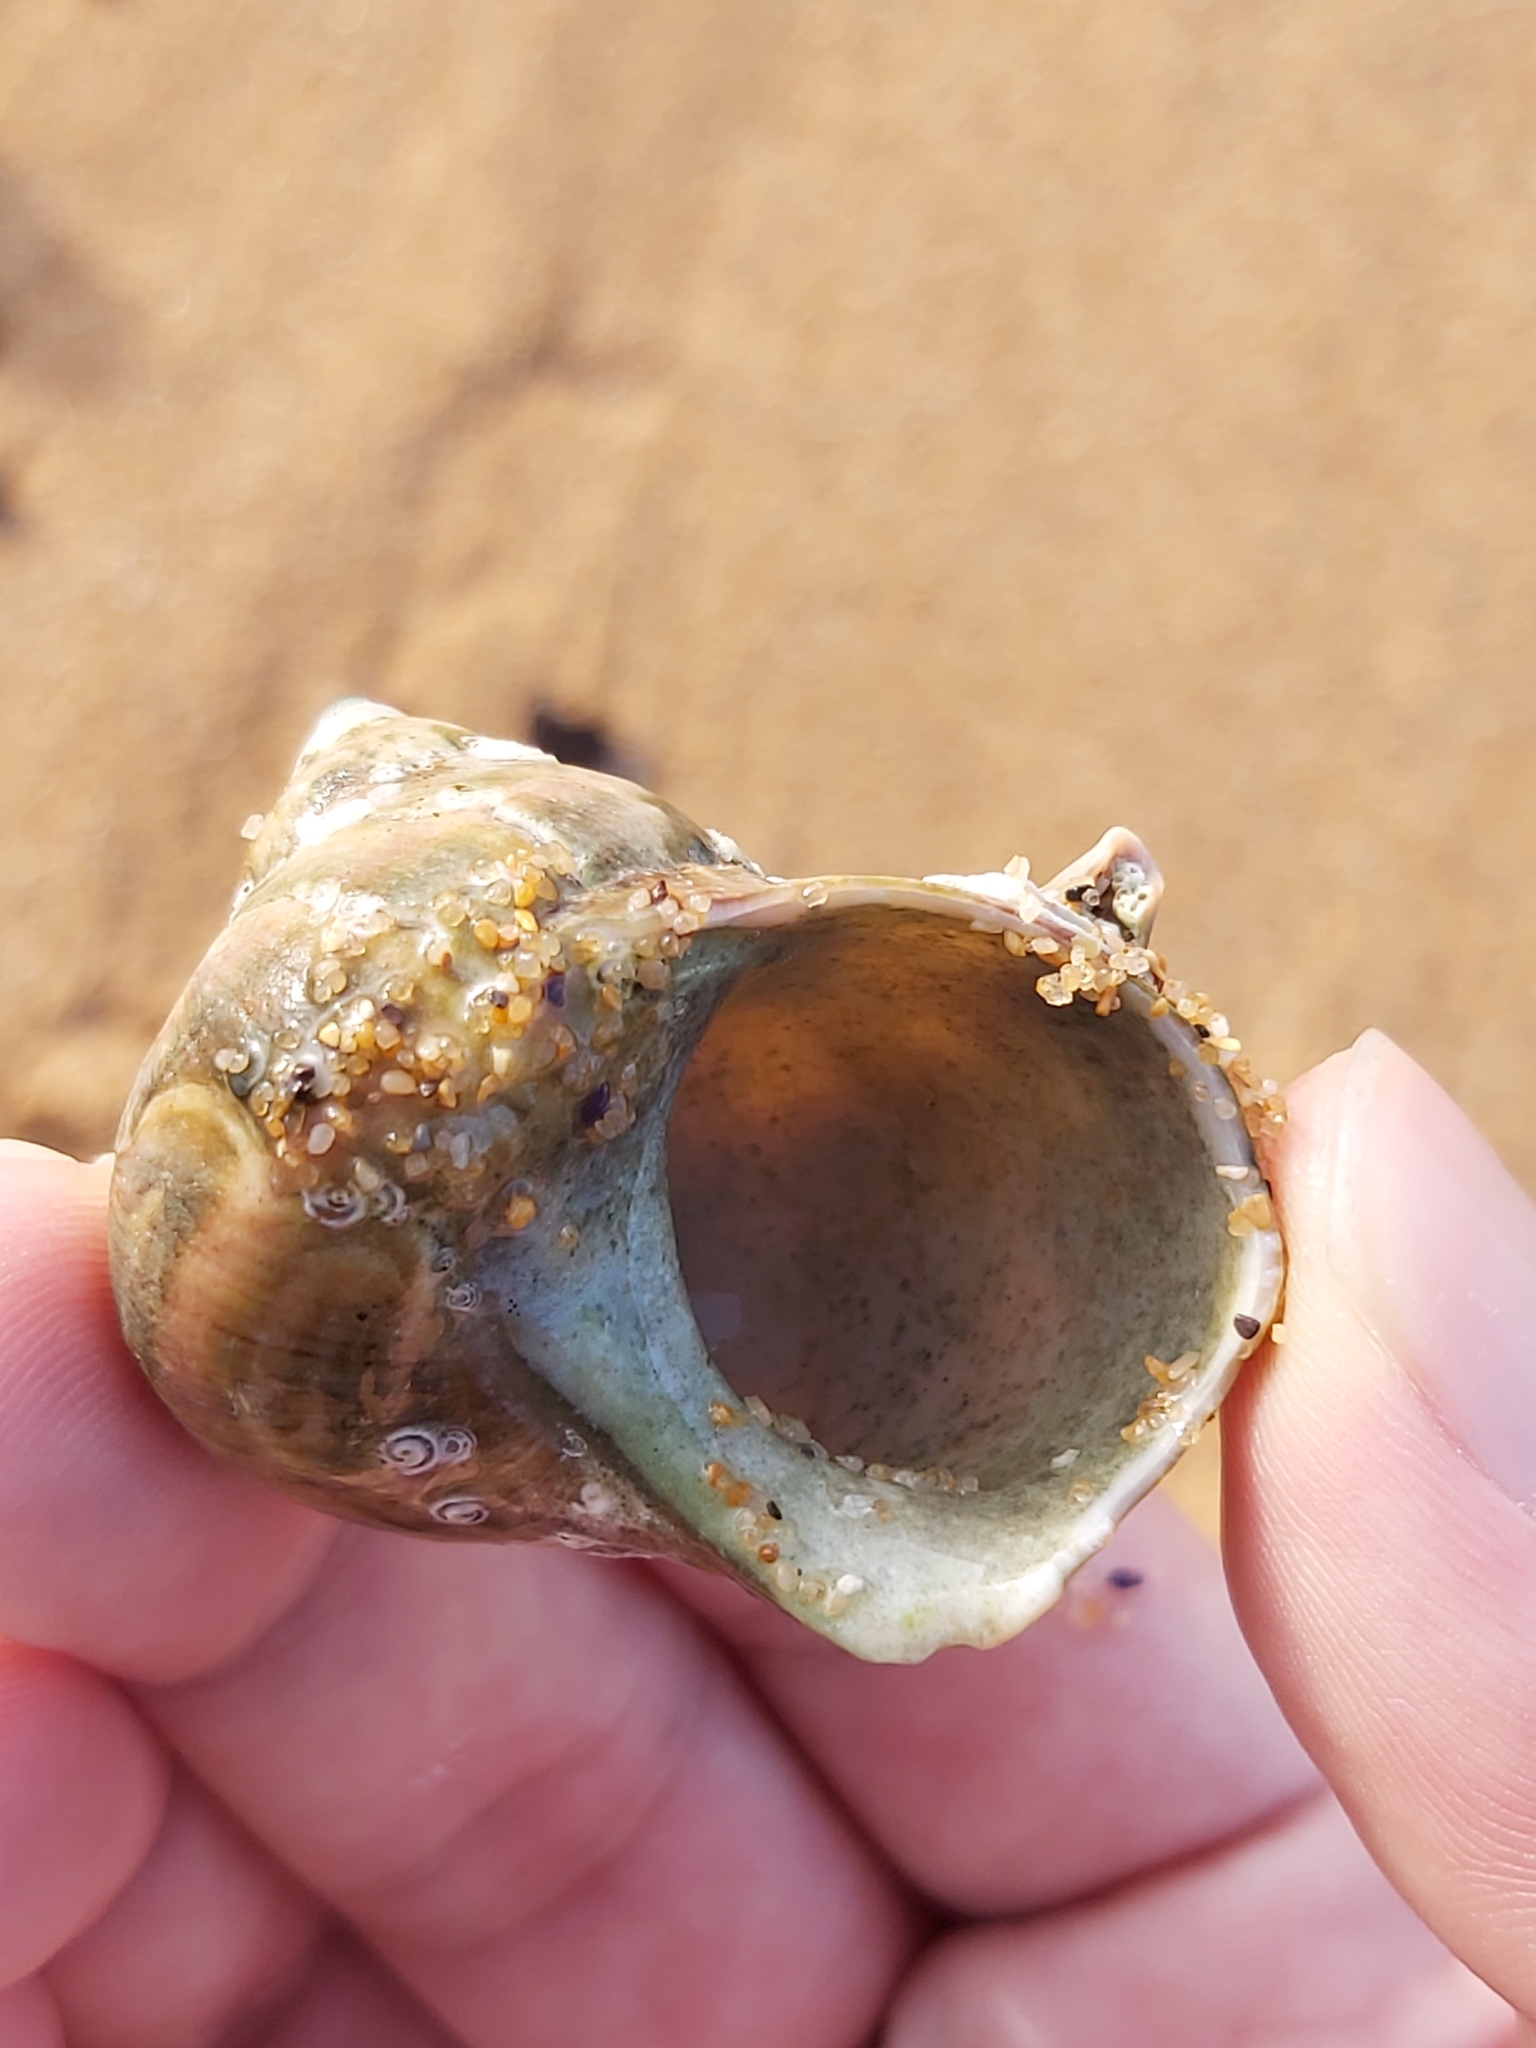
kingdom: Animalia
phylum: Mollusca
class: Gastropoda
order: Trochida
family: Turbinidae
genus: Turbo
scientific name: Turbo militaris
